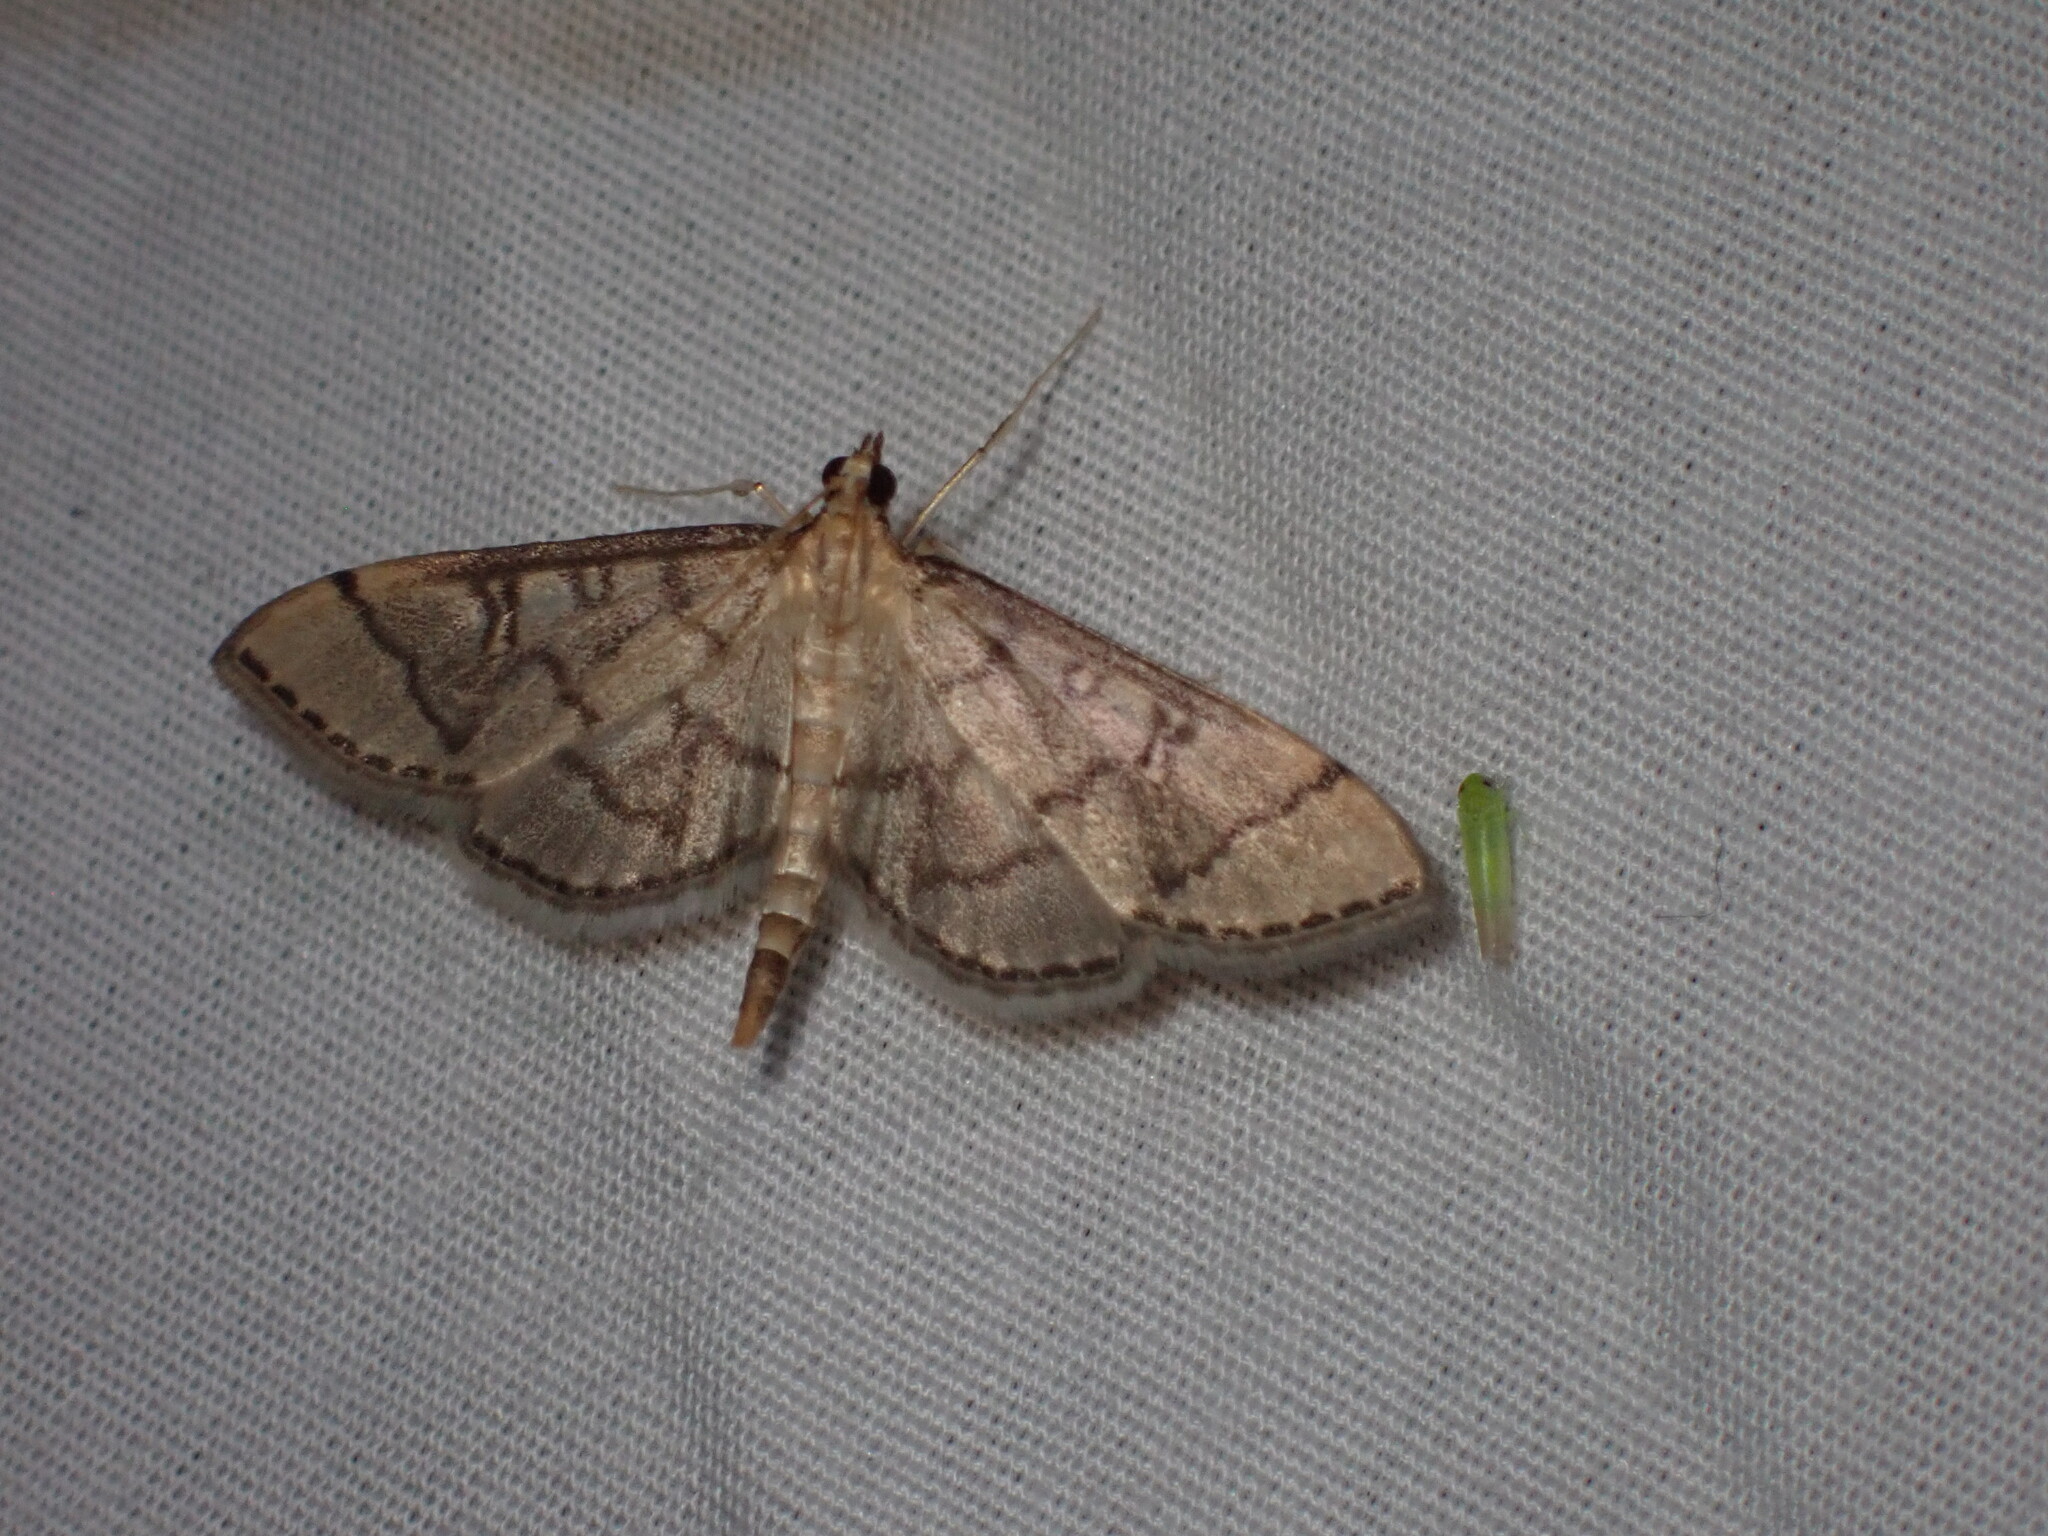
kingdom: Animalia
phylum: Arthropoda
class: Insecta
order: Lepidoptera
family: Crambidae
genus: Lamprosema
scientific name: Lamprosema Blepharomastix ranalis
